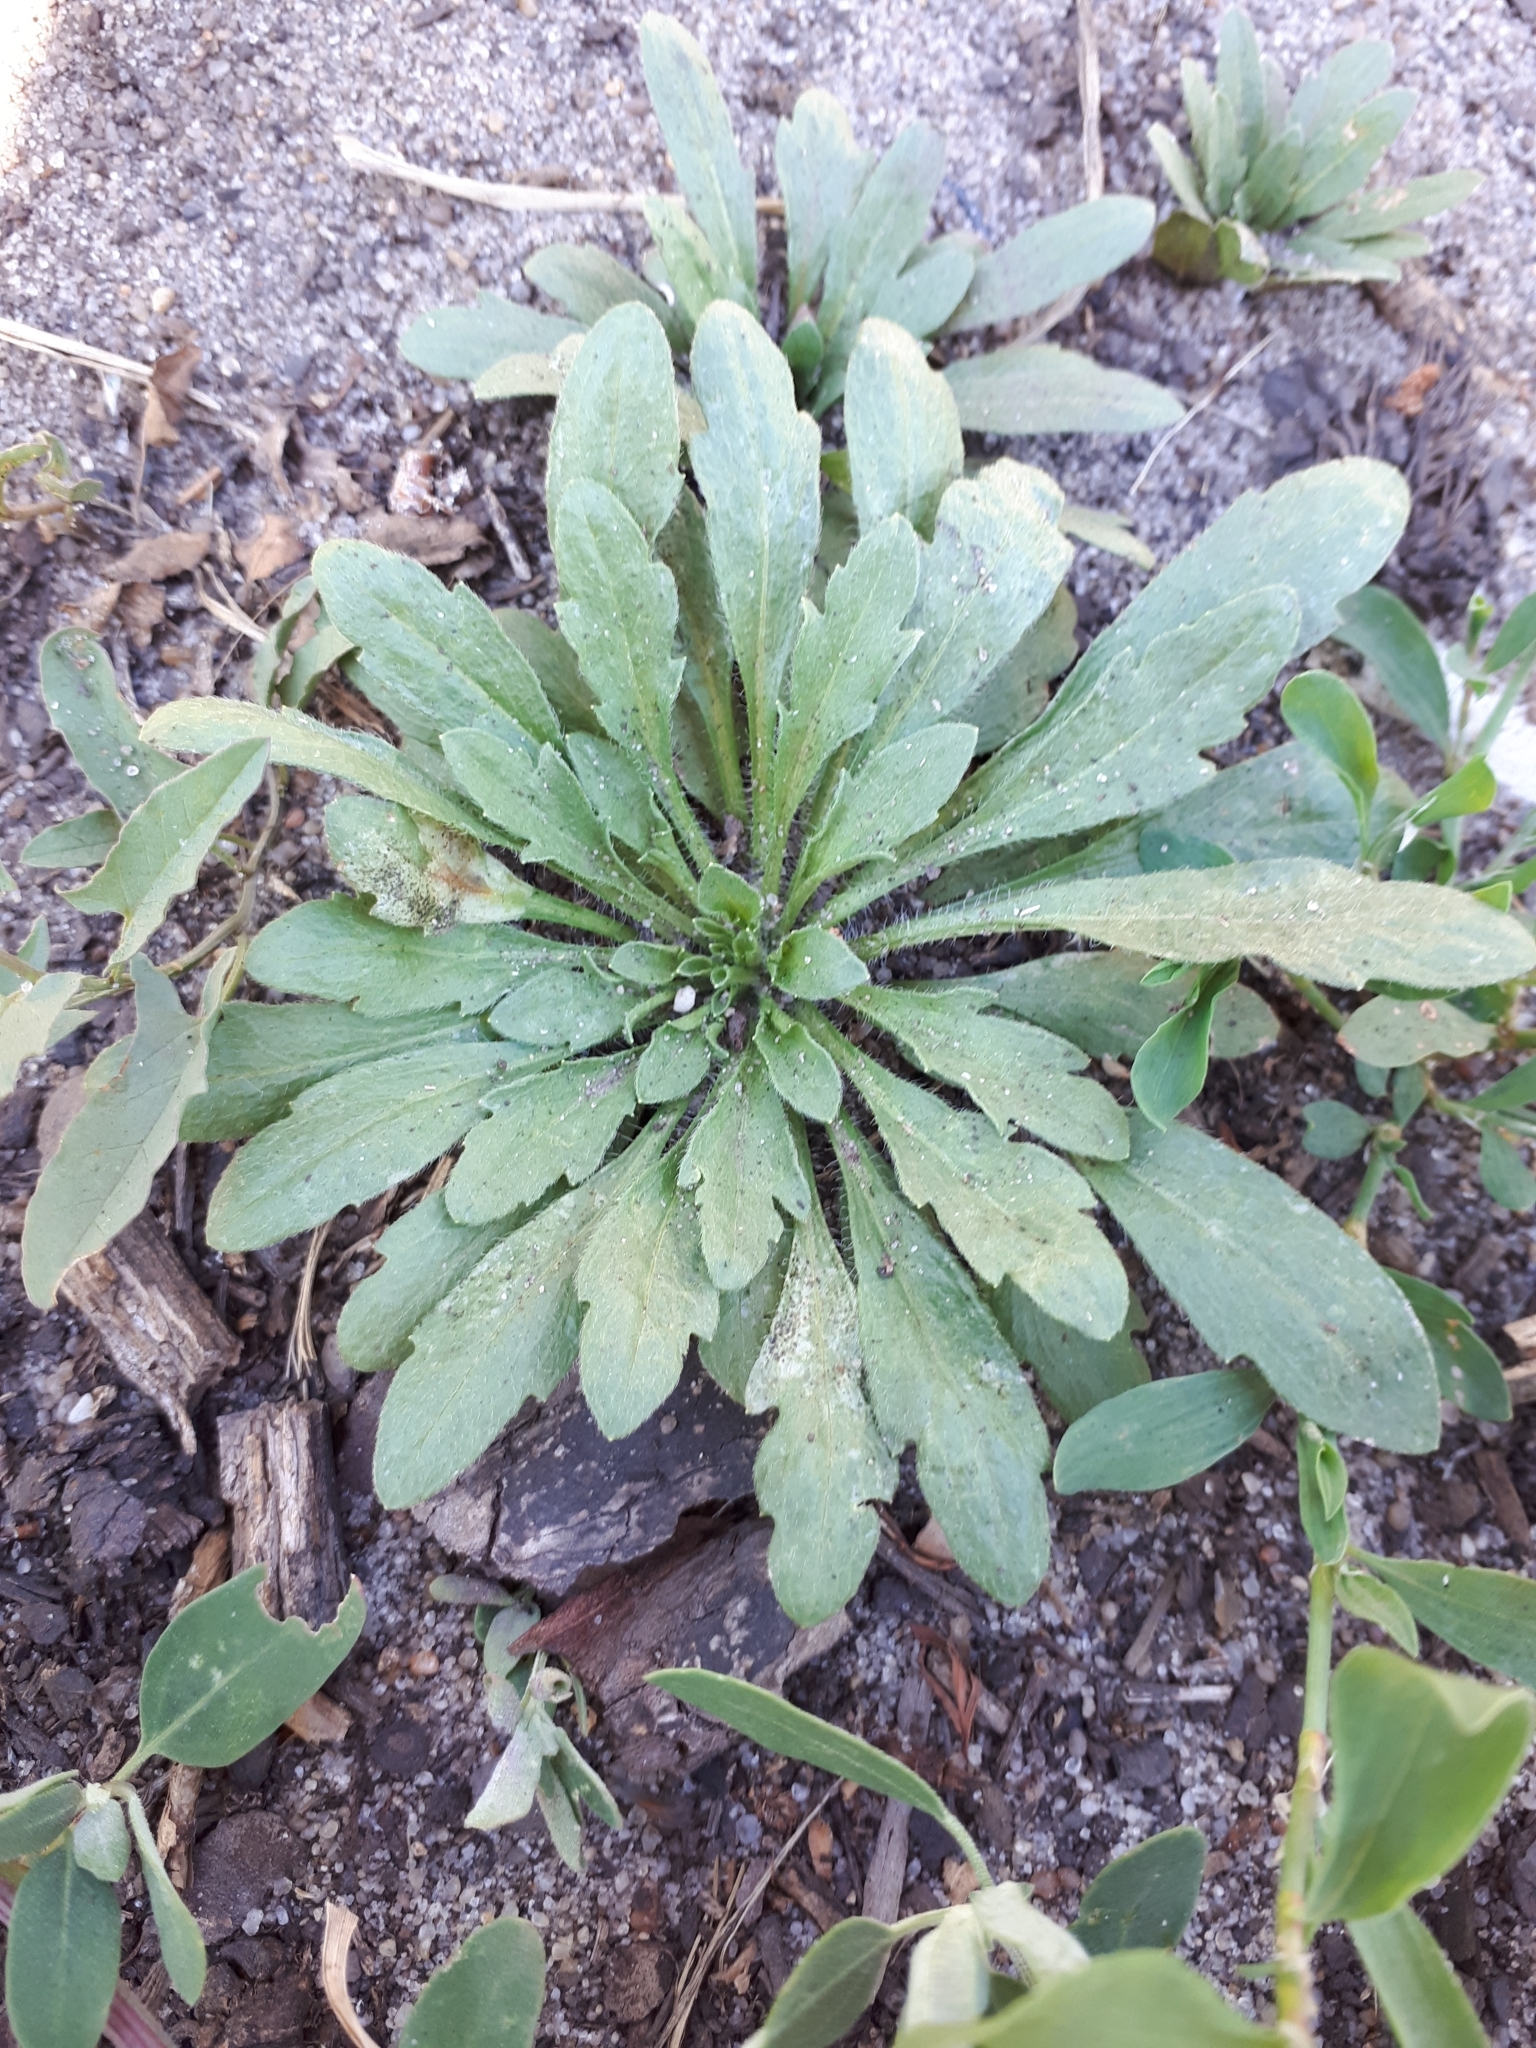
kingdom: Plantae
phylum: Tracheophyta
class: Magnoliopsida
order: Asterales
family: Asteraceae
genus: Erigeron
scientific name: Erigeron canadensis
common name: Canadian fleabane
